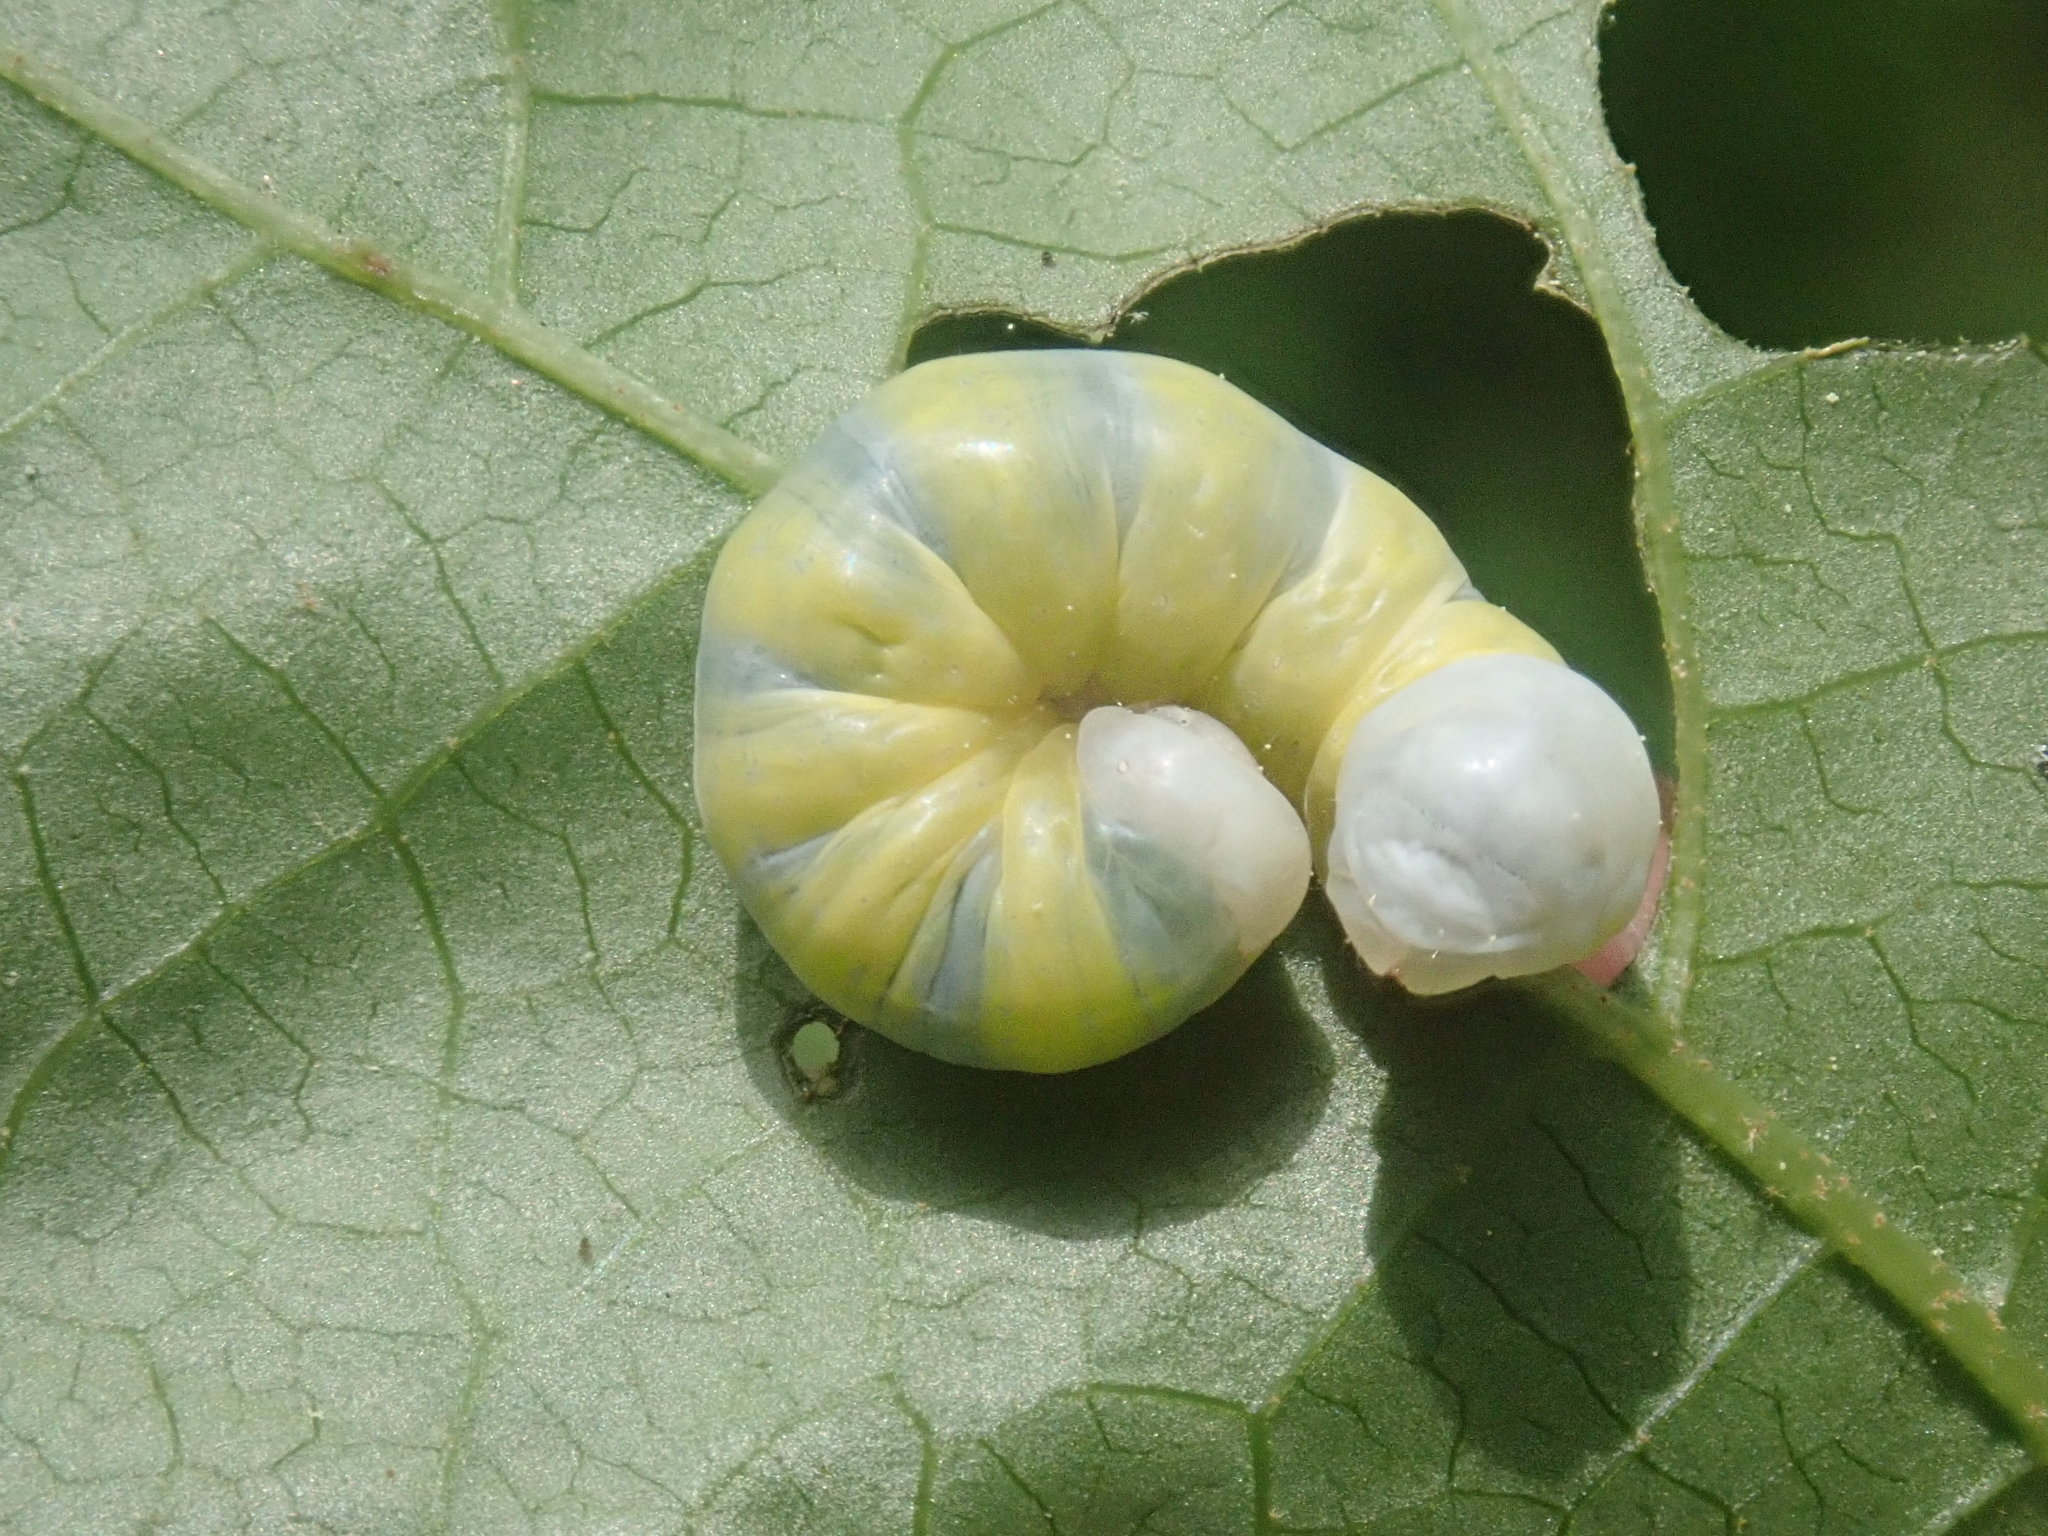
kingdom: Animalia
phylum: Arthropoda
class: Insecta
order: Lepidoptera
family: Noctuidae
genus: Pyreferra
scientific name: Pyreferra
